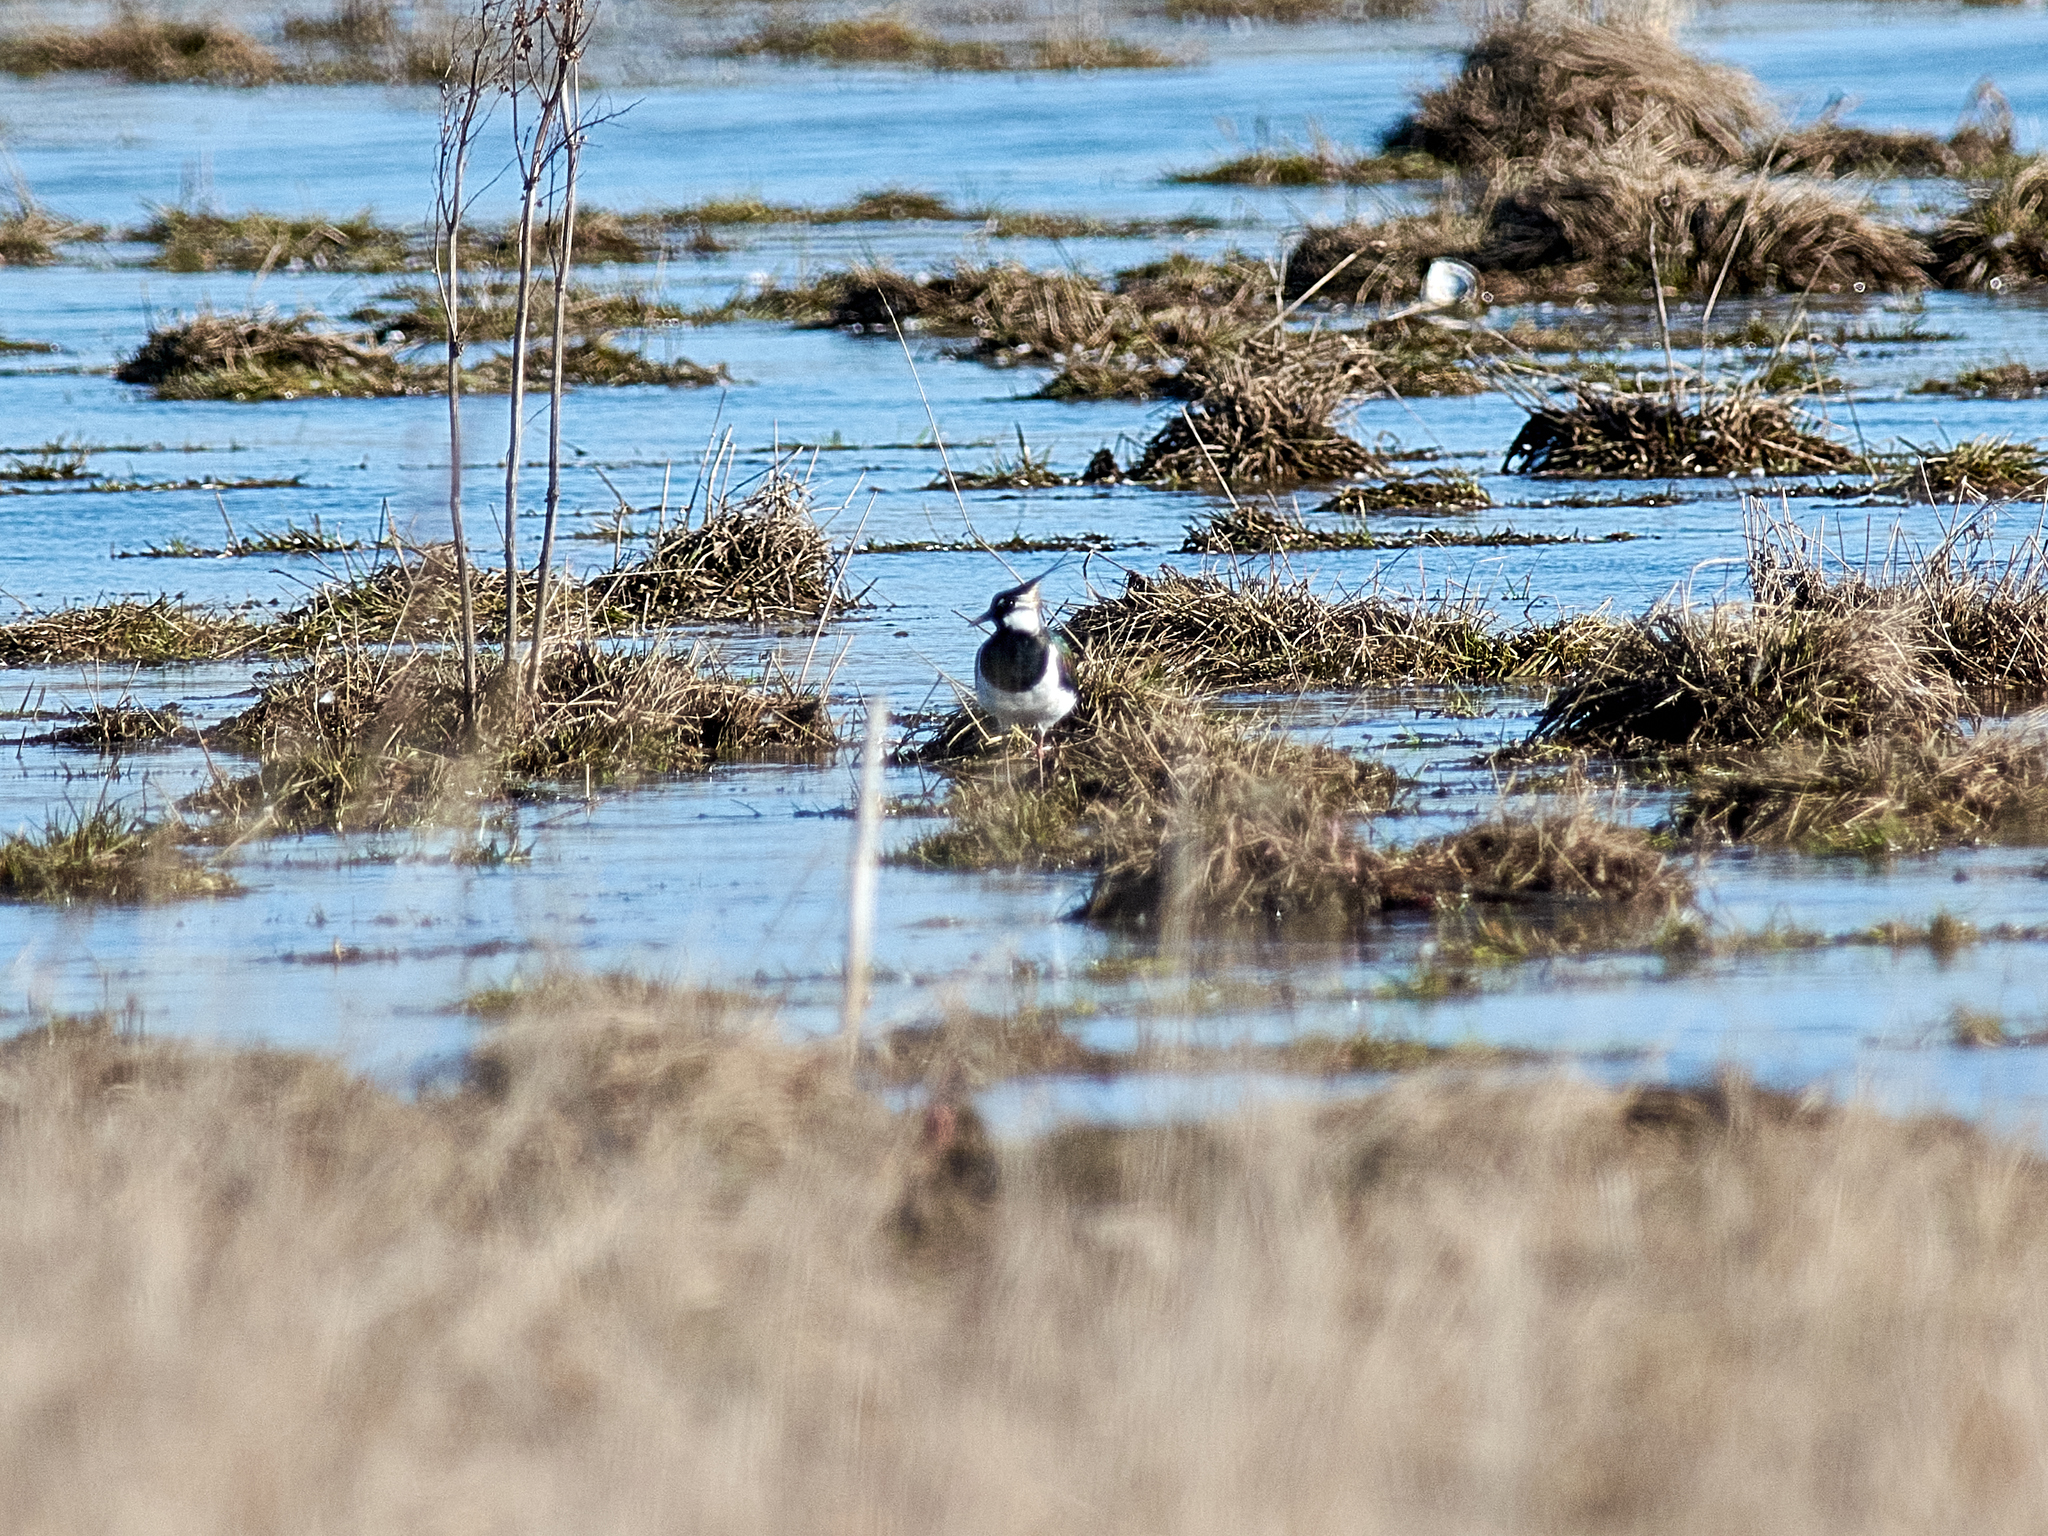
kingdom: Animalia
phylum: Chordata
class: Aves
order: Charadriiformes
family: Charadriidae
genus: Vanellus
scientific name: Vanellus vanellus
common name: Northern lapwing
